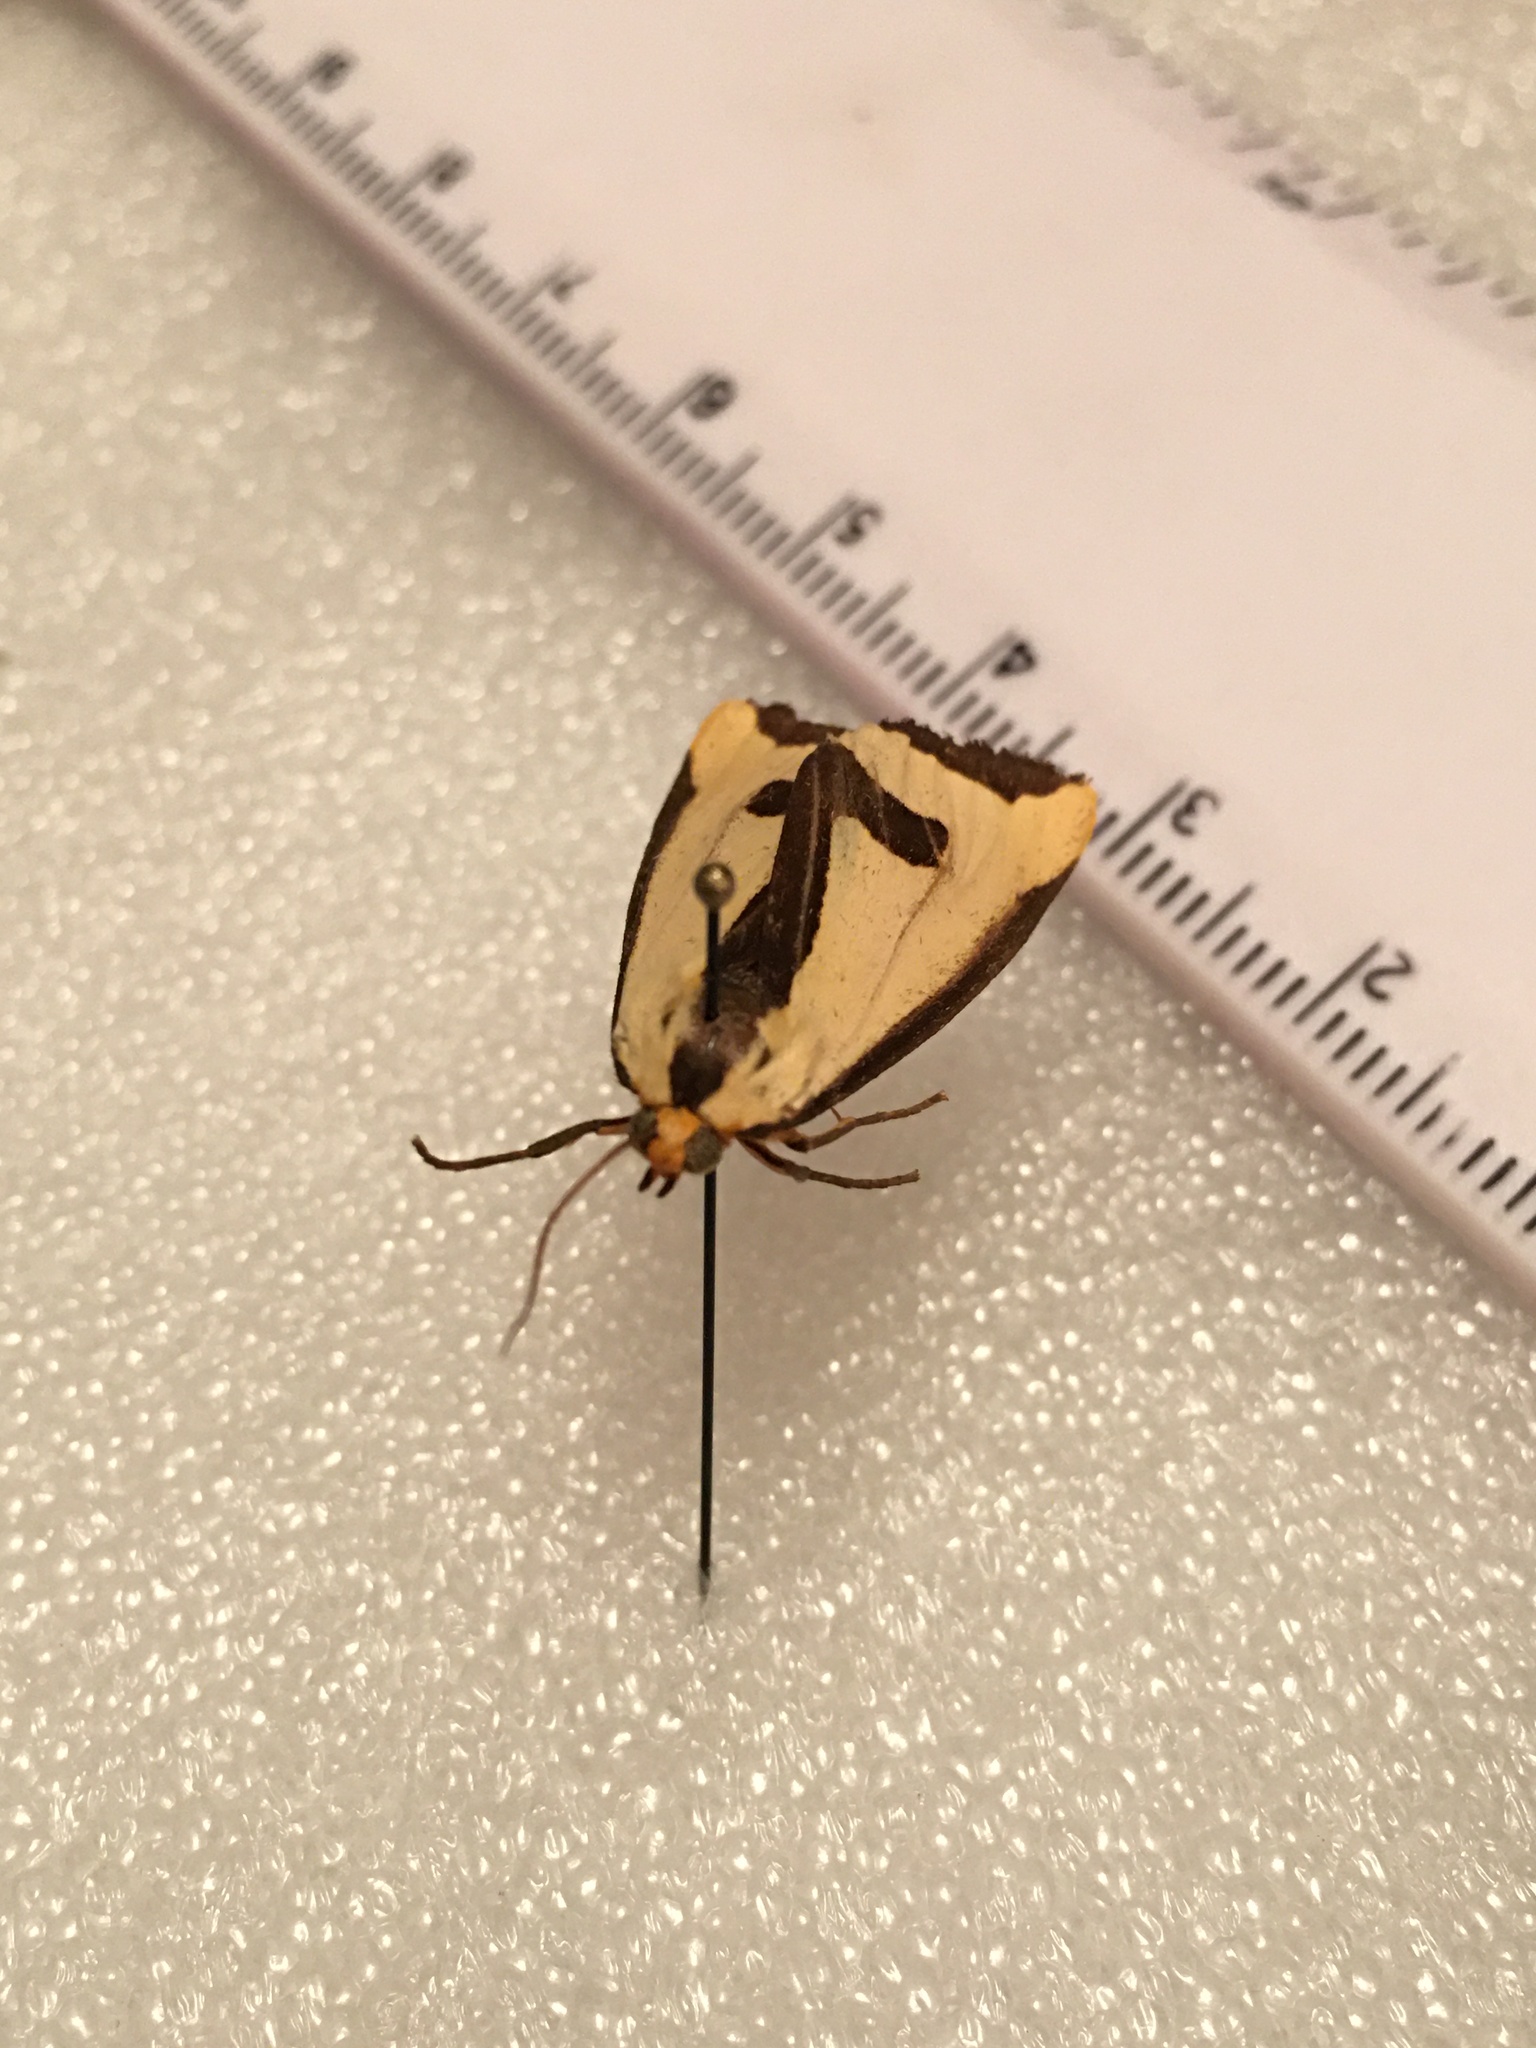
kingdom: Animalia
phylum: Arthropoda
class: Insecta
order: Lepidoptera
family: Erebidae
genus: Haploa
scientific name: Haploa clymene
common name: Clymene moth
